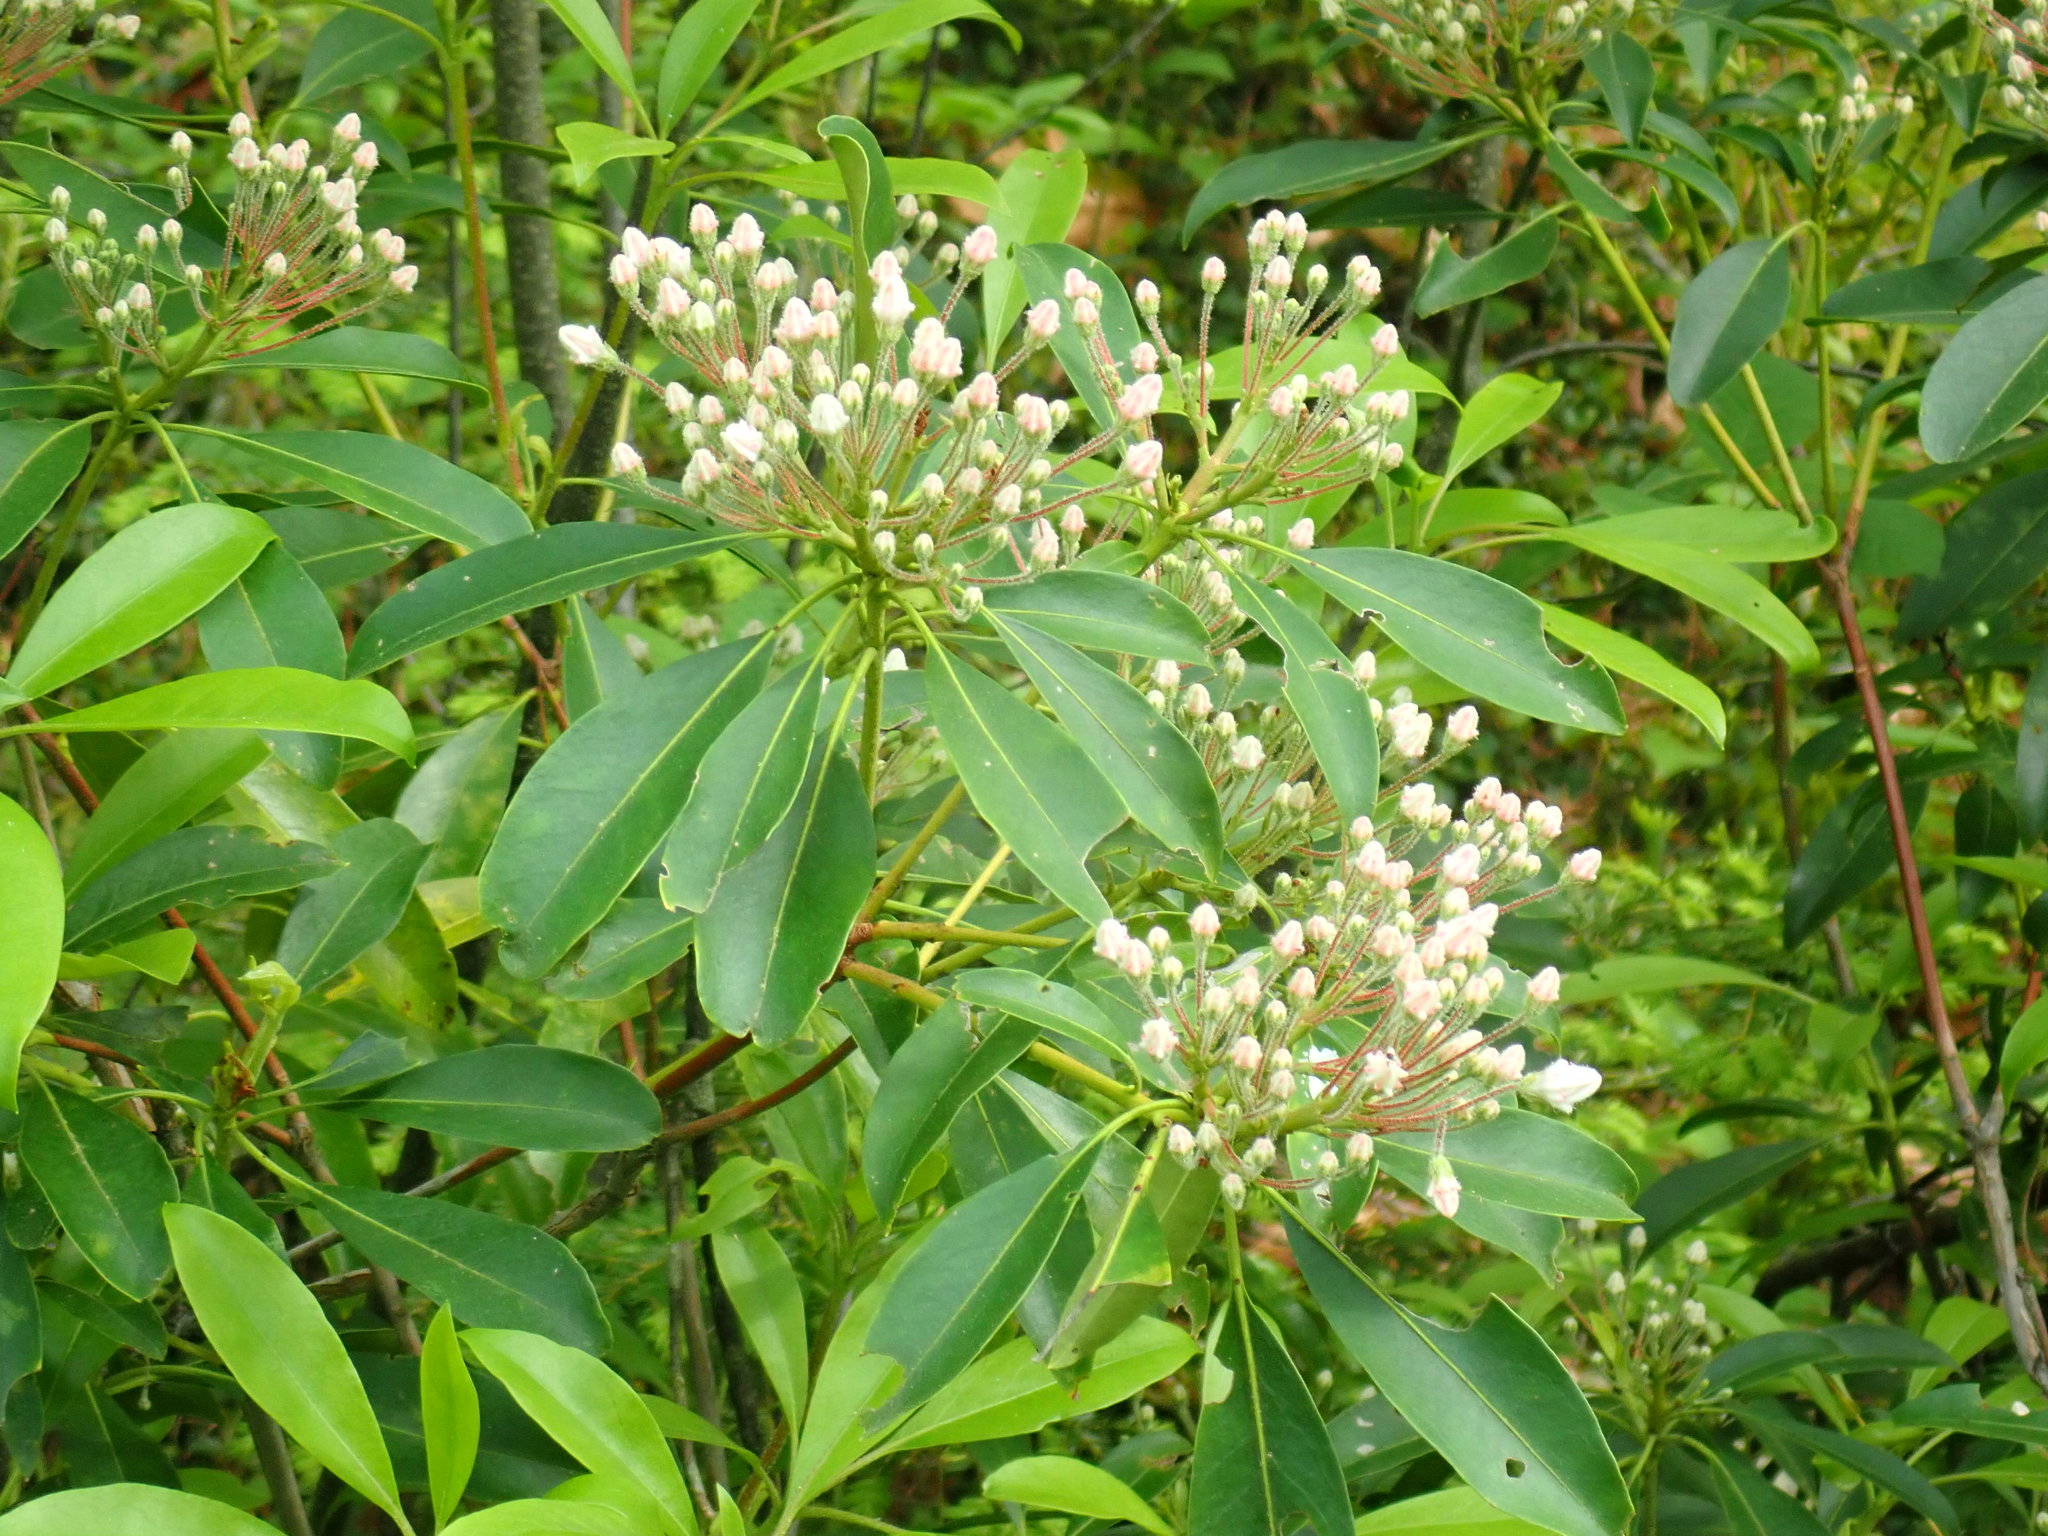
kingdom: Plantae
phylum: Tracheophyta
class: Magnoliopsida
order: Ericales
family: Ericaceae
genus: Kalmia
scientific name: Kalmia latifolia
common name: Mountain-laurel
